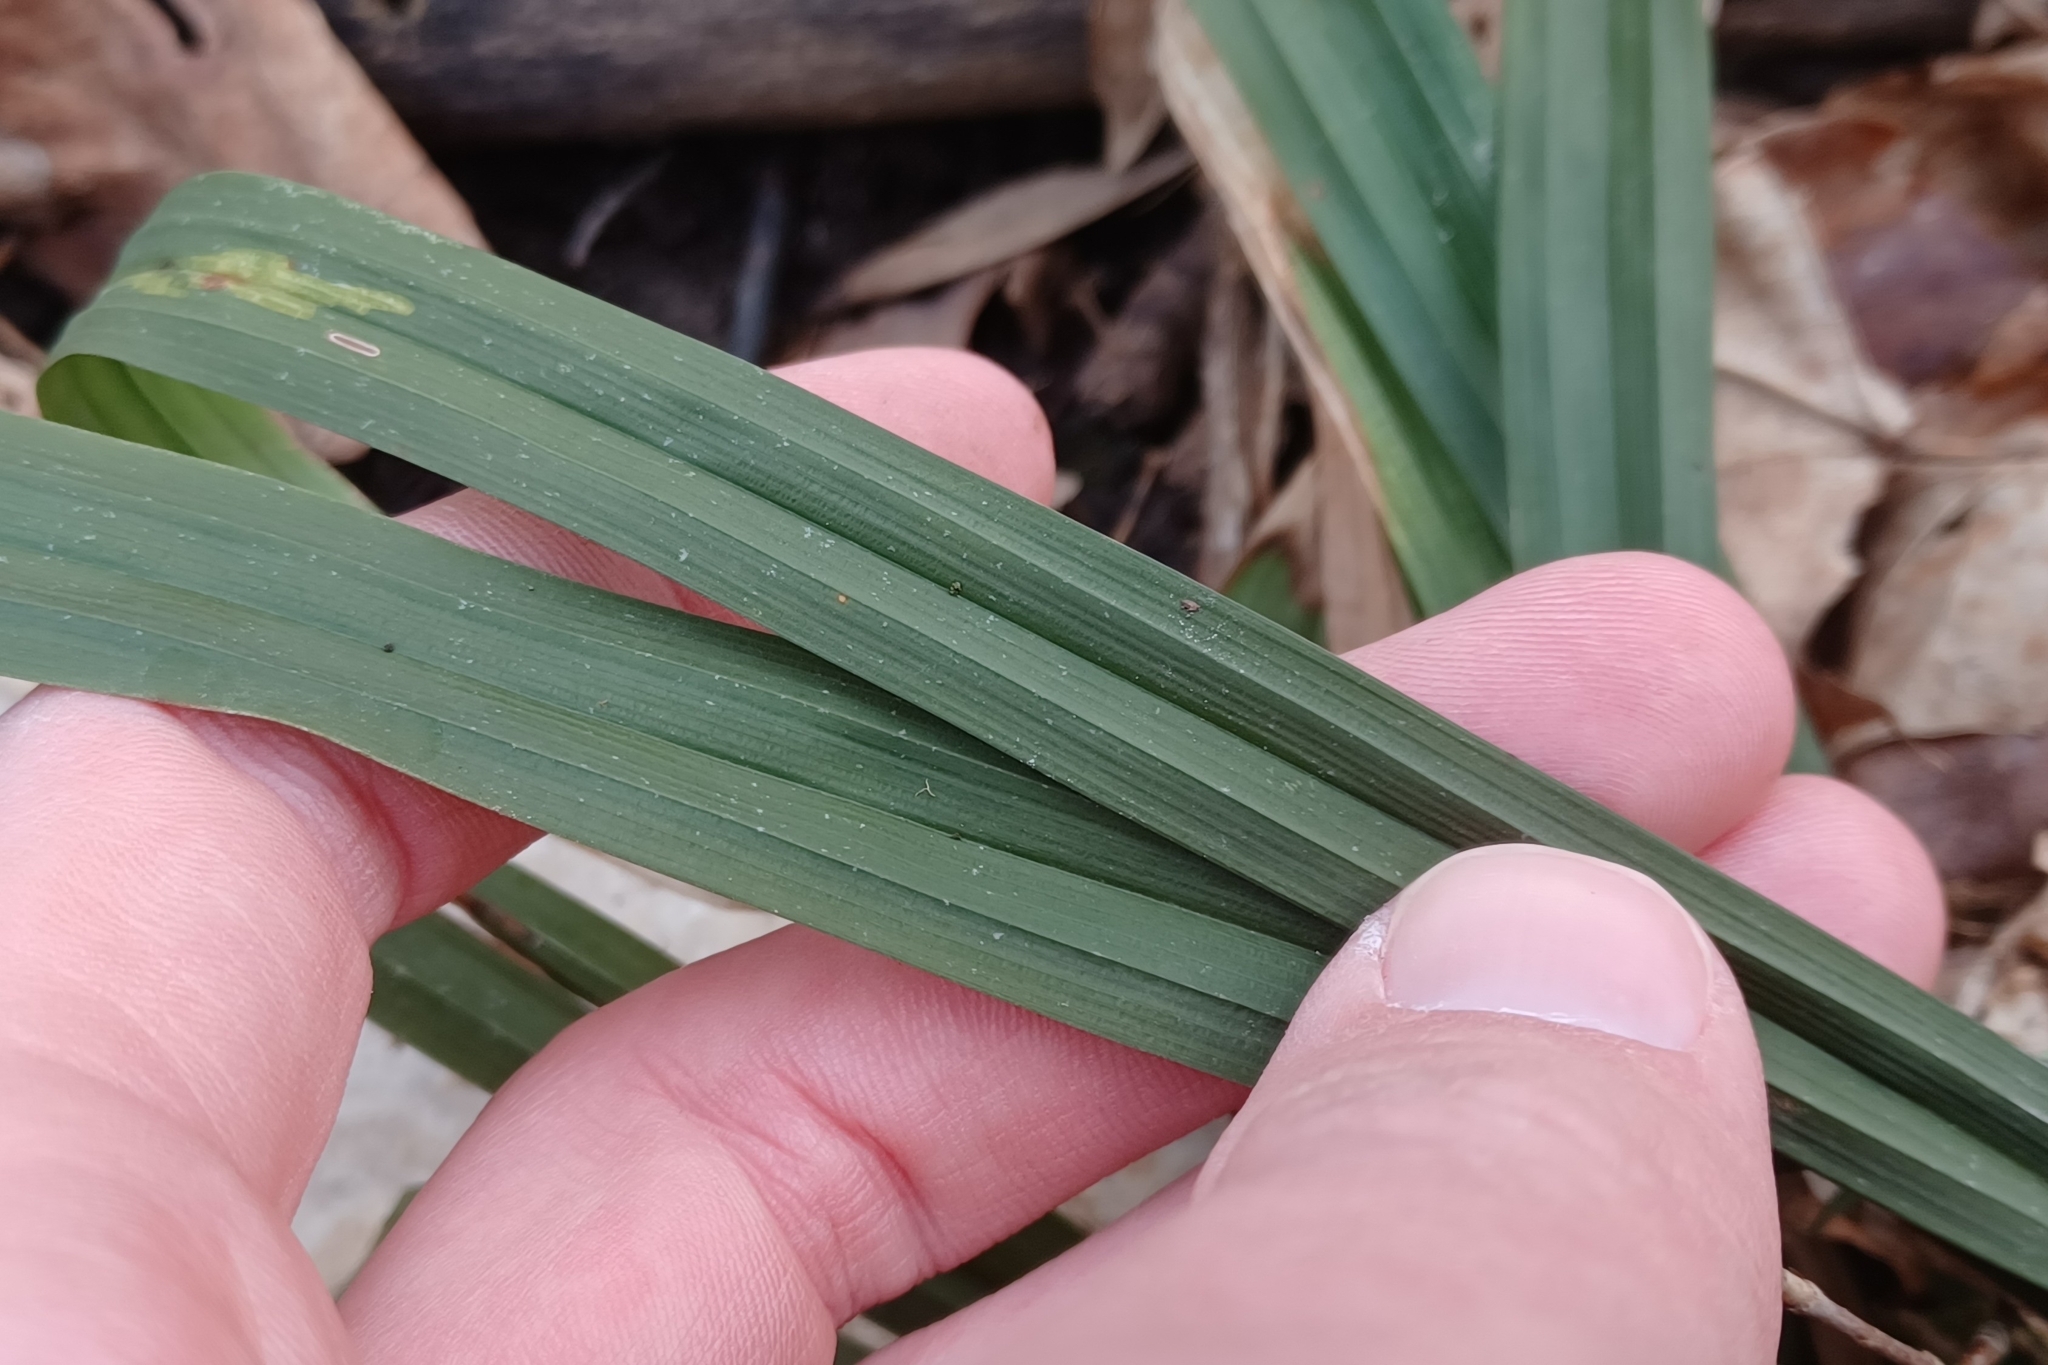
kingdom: Plantae
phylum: Tracheophyta
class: Liliopsida
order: Poales
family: Cyperaceae
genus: Carex
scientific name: Carex careyana
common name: Carey's sedge
